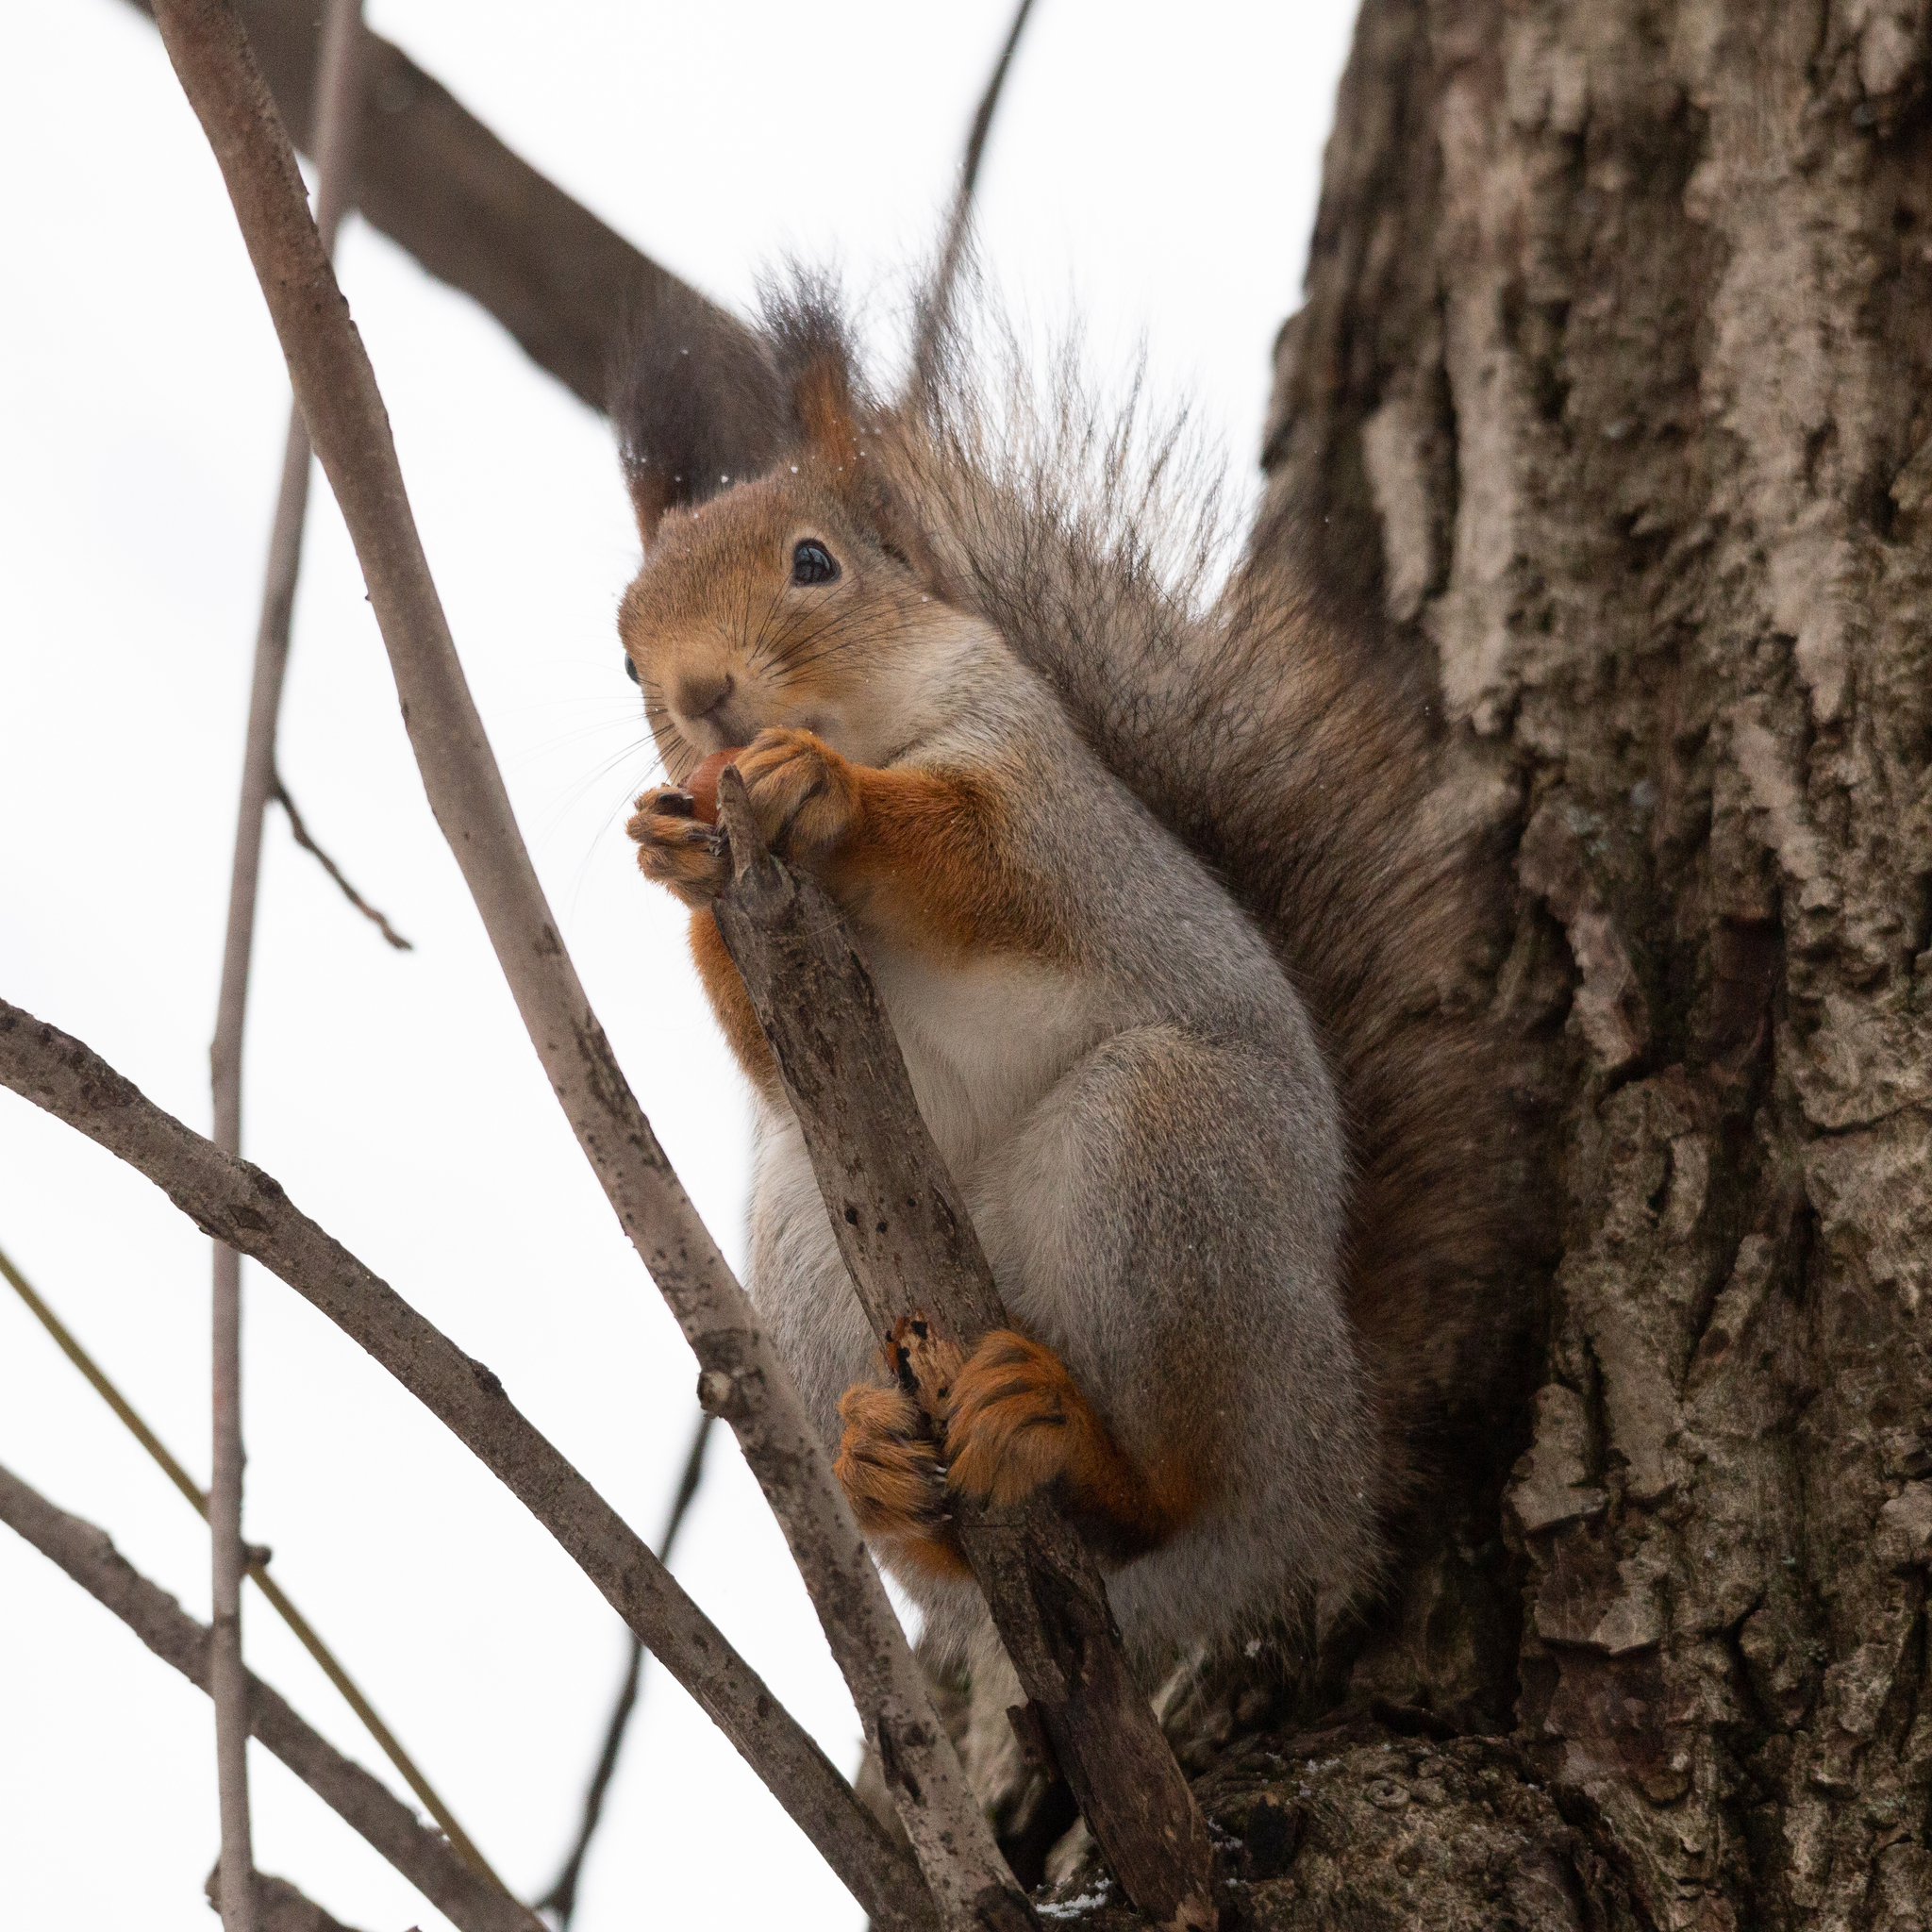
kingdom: Animalia
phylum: Chordata
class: Mammalia
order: Rodentia
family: Sciuridae
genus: Sciurus
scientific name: Sciurus vulgaris
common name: Eurasian red squirrel
